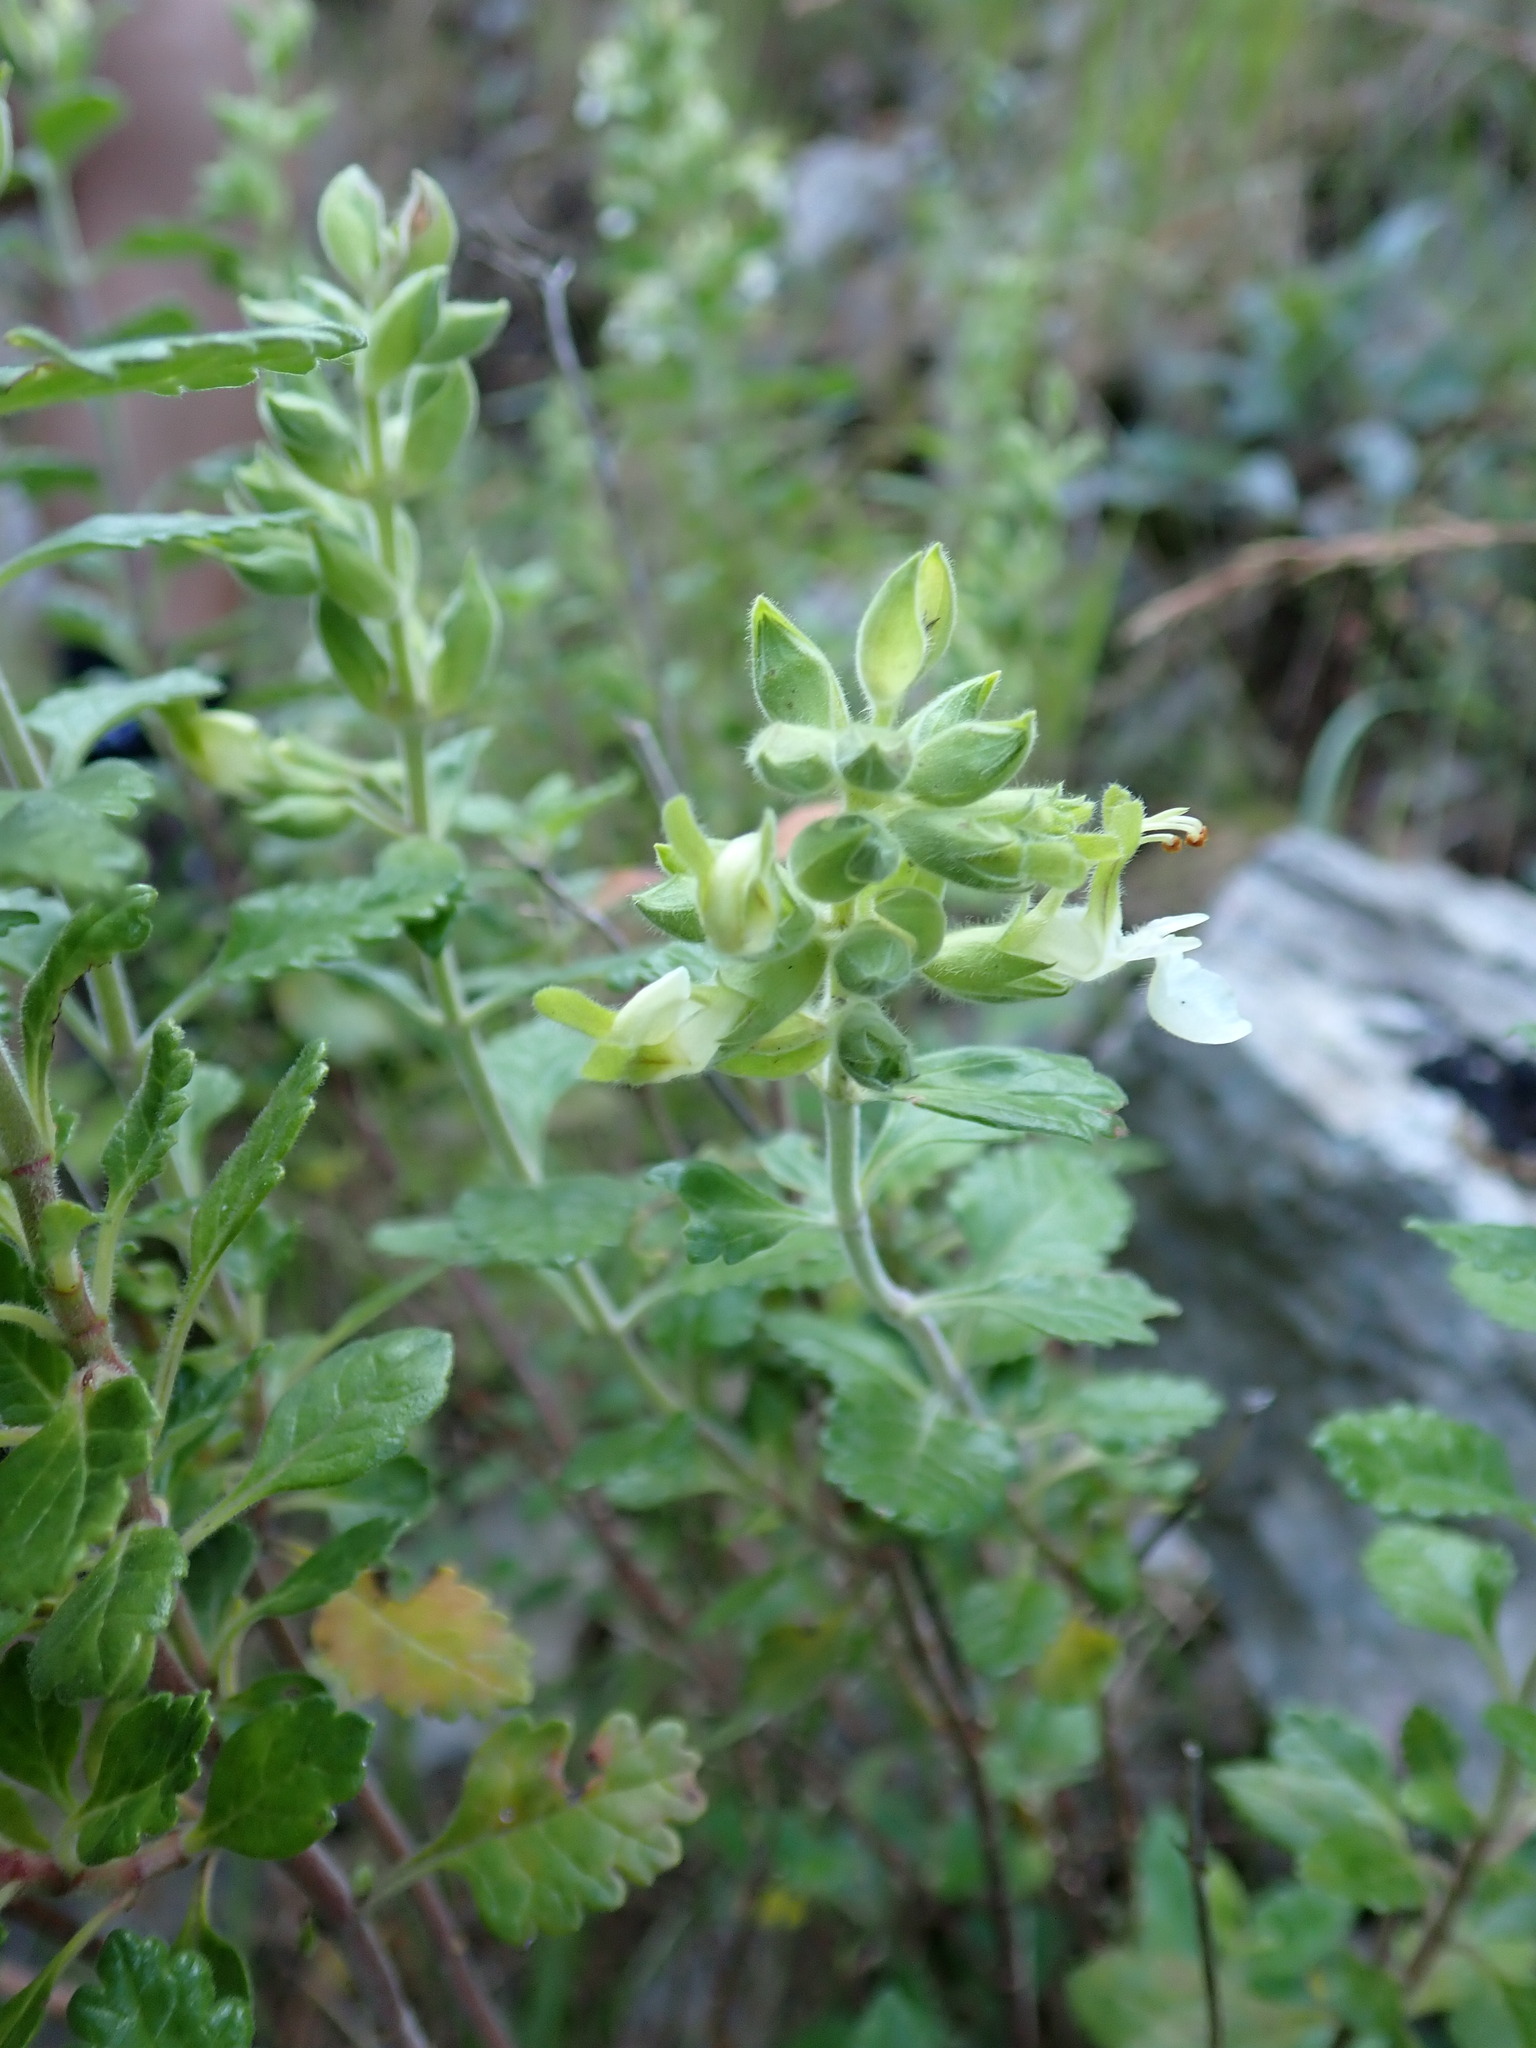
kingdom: Plantae
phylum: Tracheophyta
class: Magnoliopsida
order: Lamiales
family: Lamiaceae
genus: Teucrium
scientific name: Teucrium flavum
